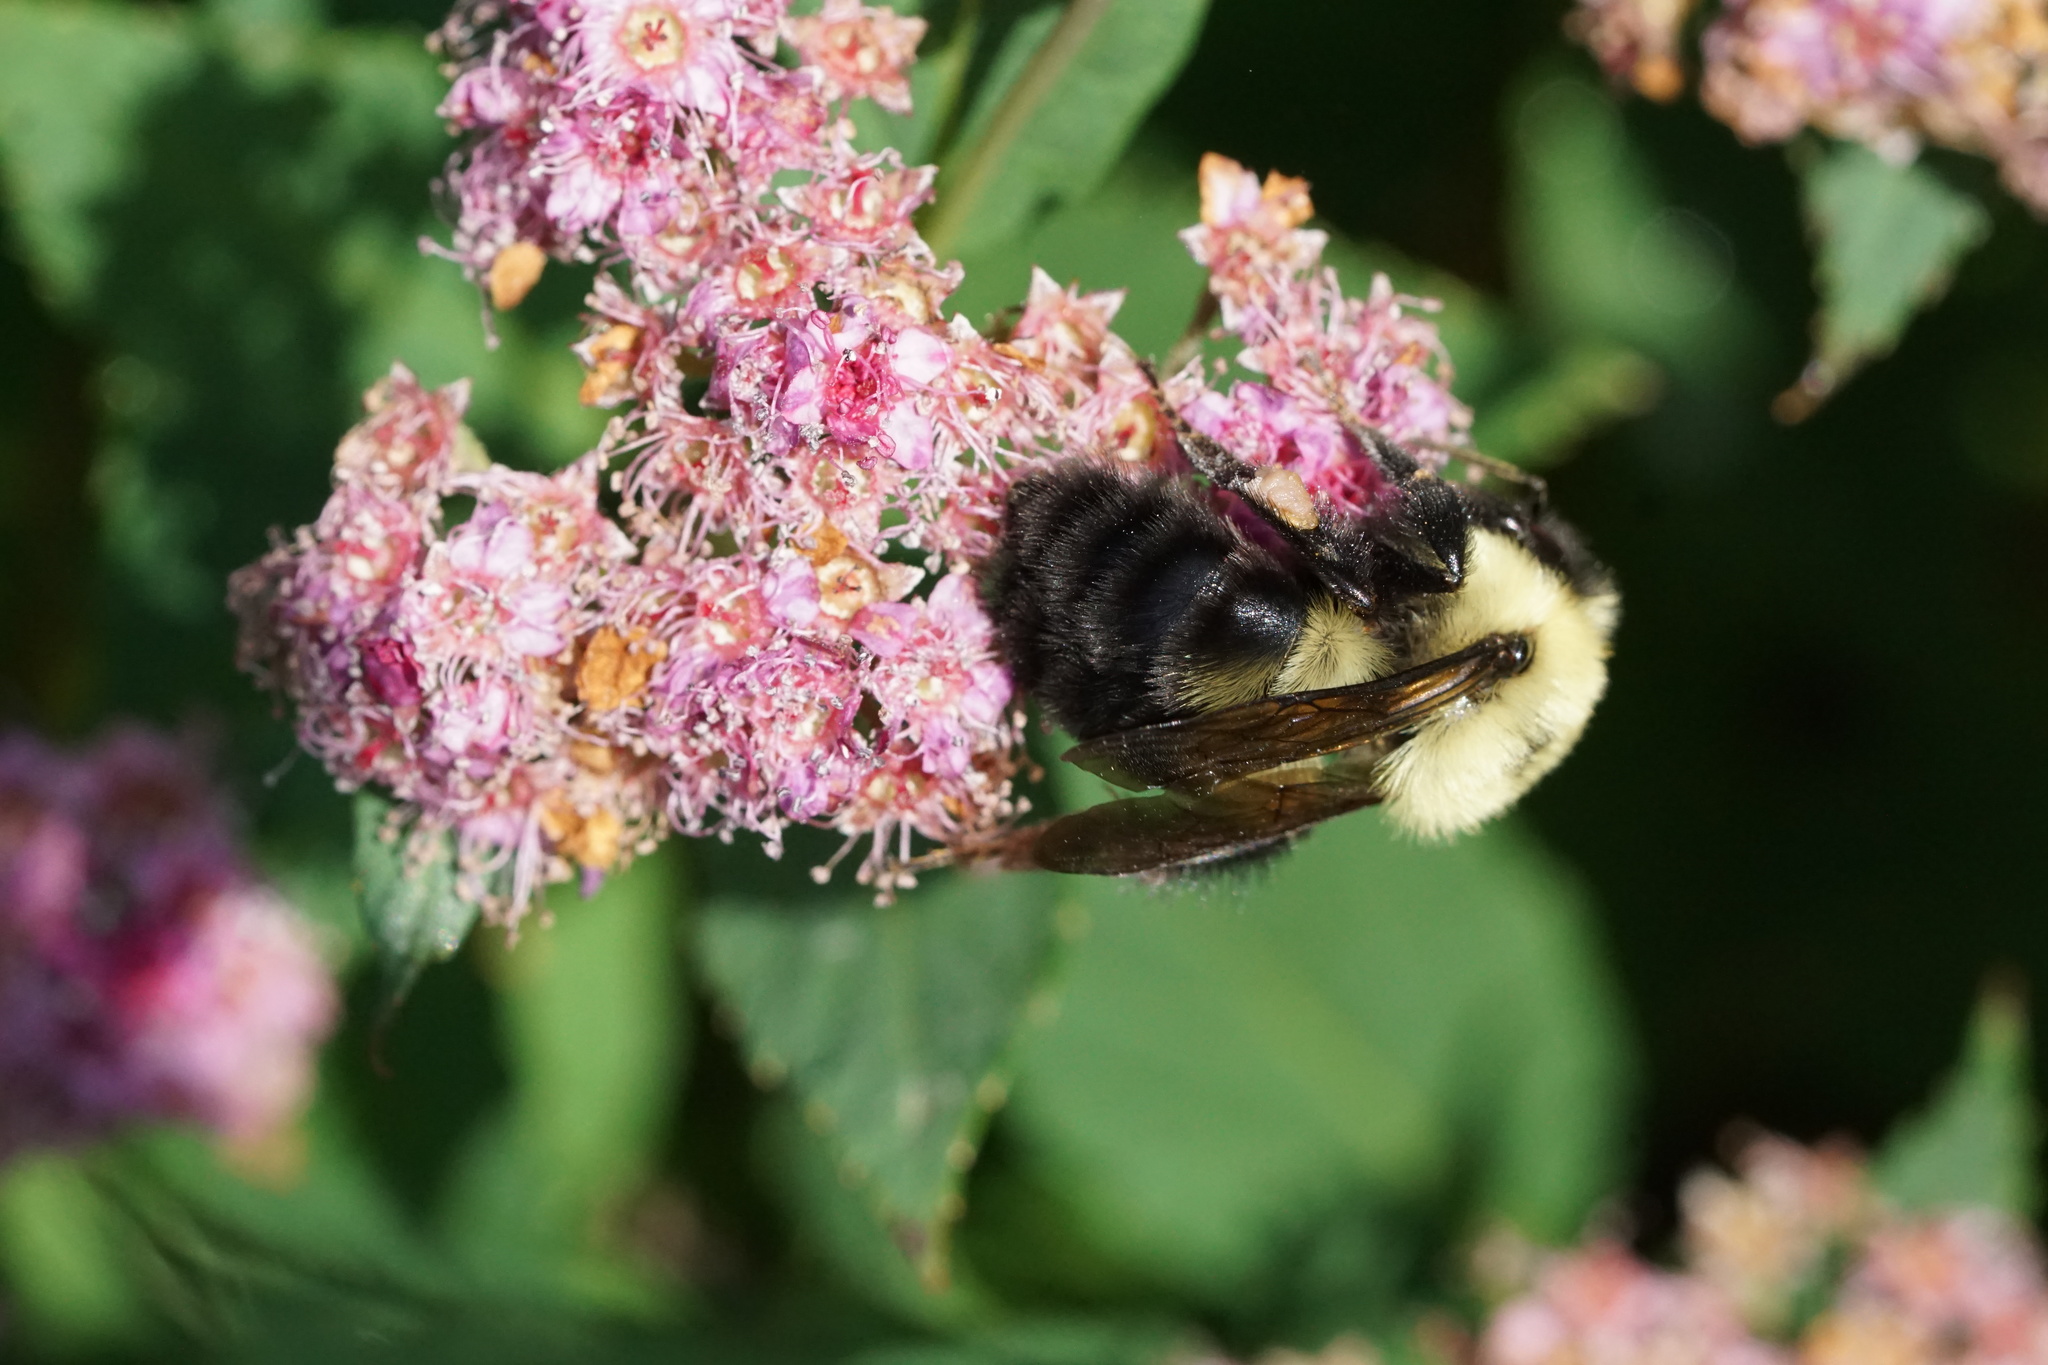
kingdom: Animalia
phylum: Arthropoda
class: Insecta
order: Hymenoptera
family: Apidae
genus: Bombus
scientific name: Bombus bimaculatus
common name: Two-spotted bumble bee
